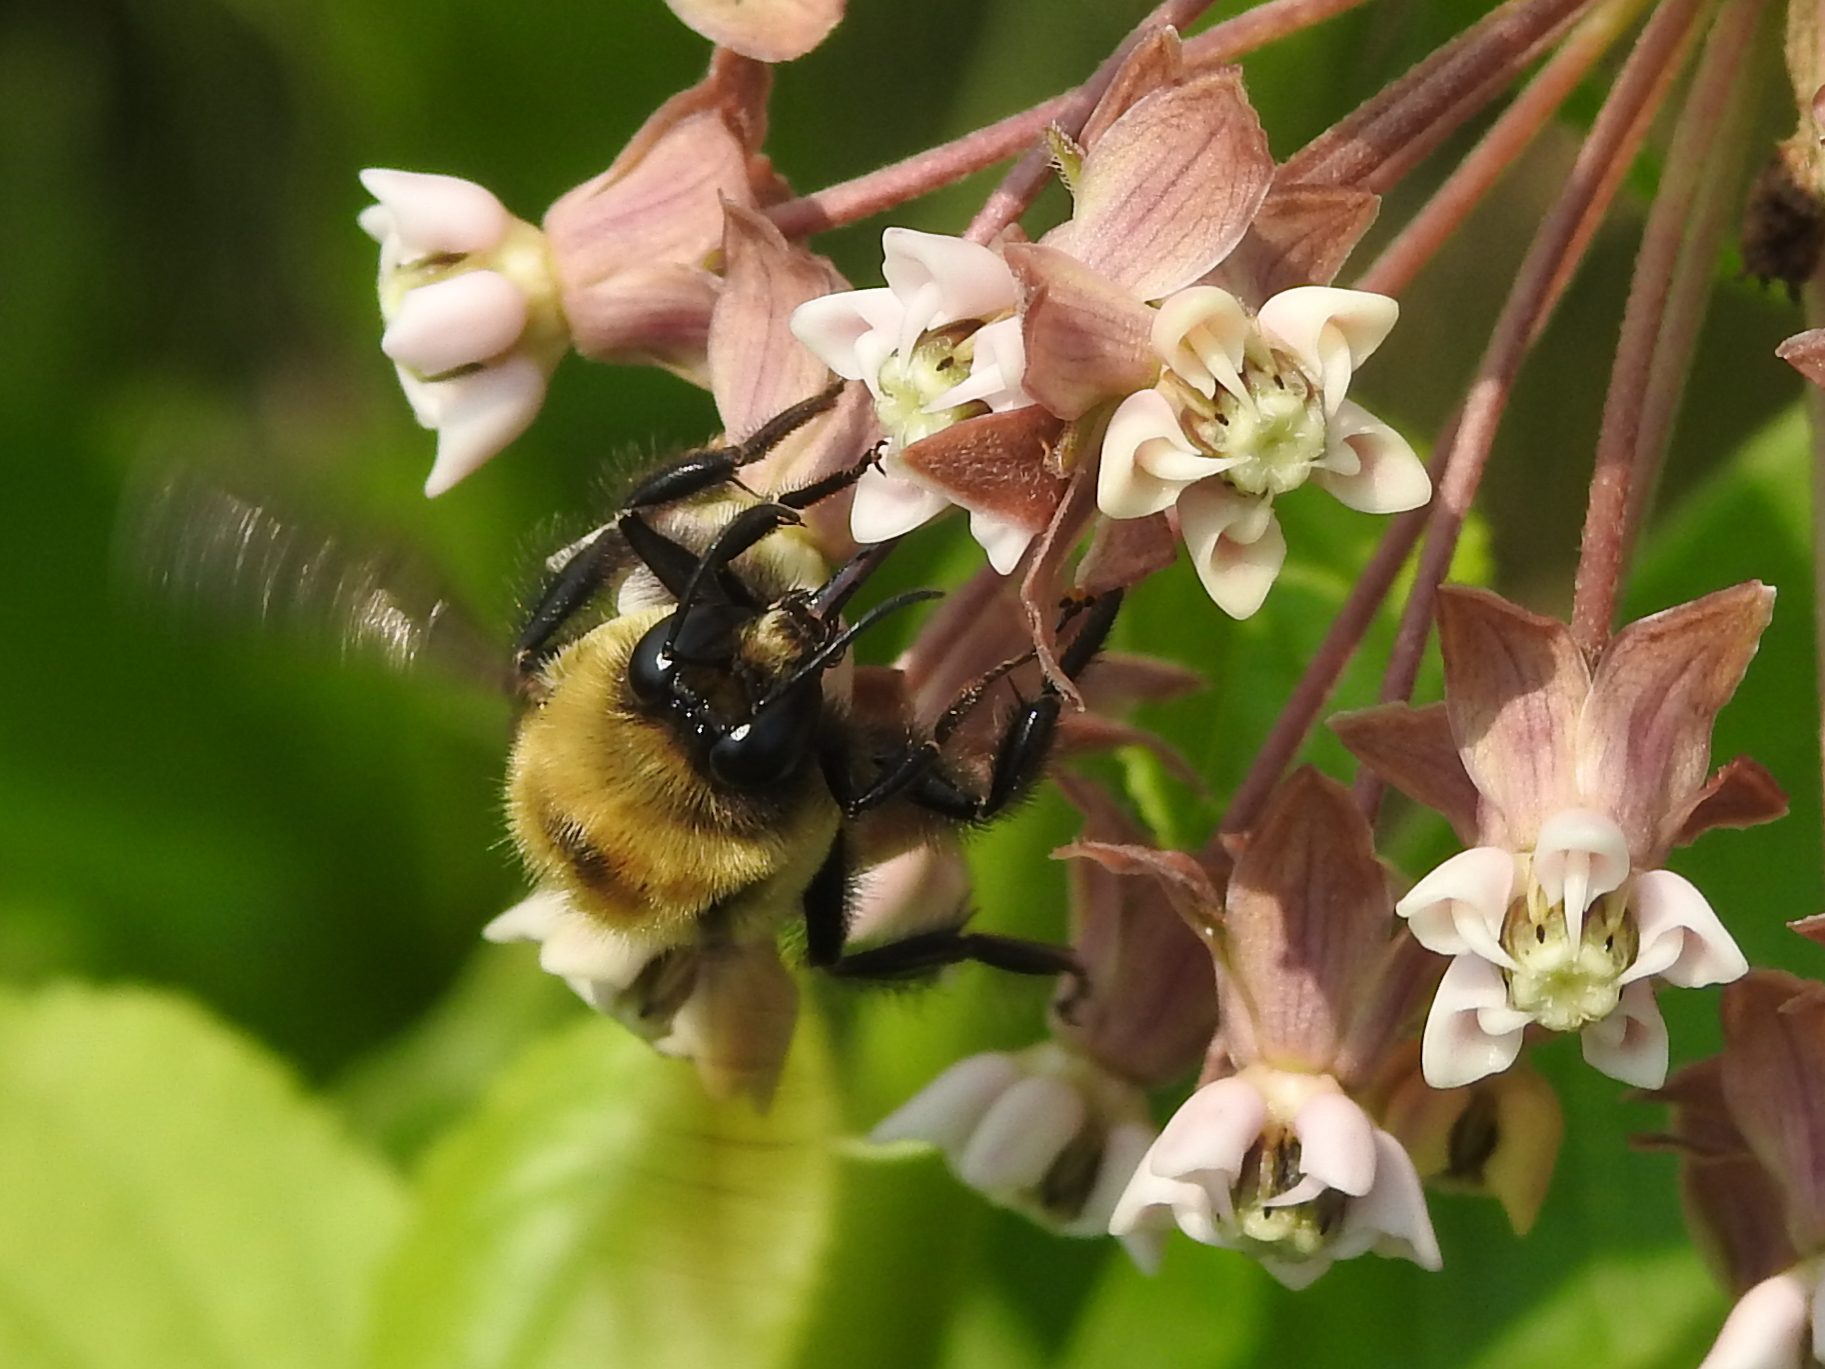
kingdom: Animalia
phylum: Arthropoda
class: Insecta
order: Hymenoptera
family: Apidae
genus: Bombus
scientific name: Bombus griseocollis
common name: Brown-belted bumble bee
